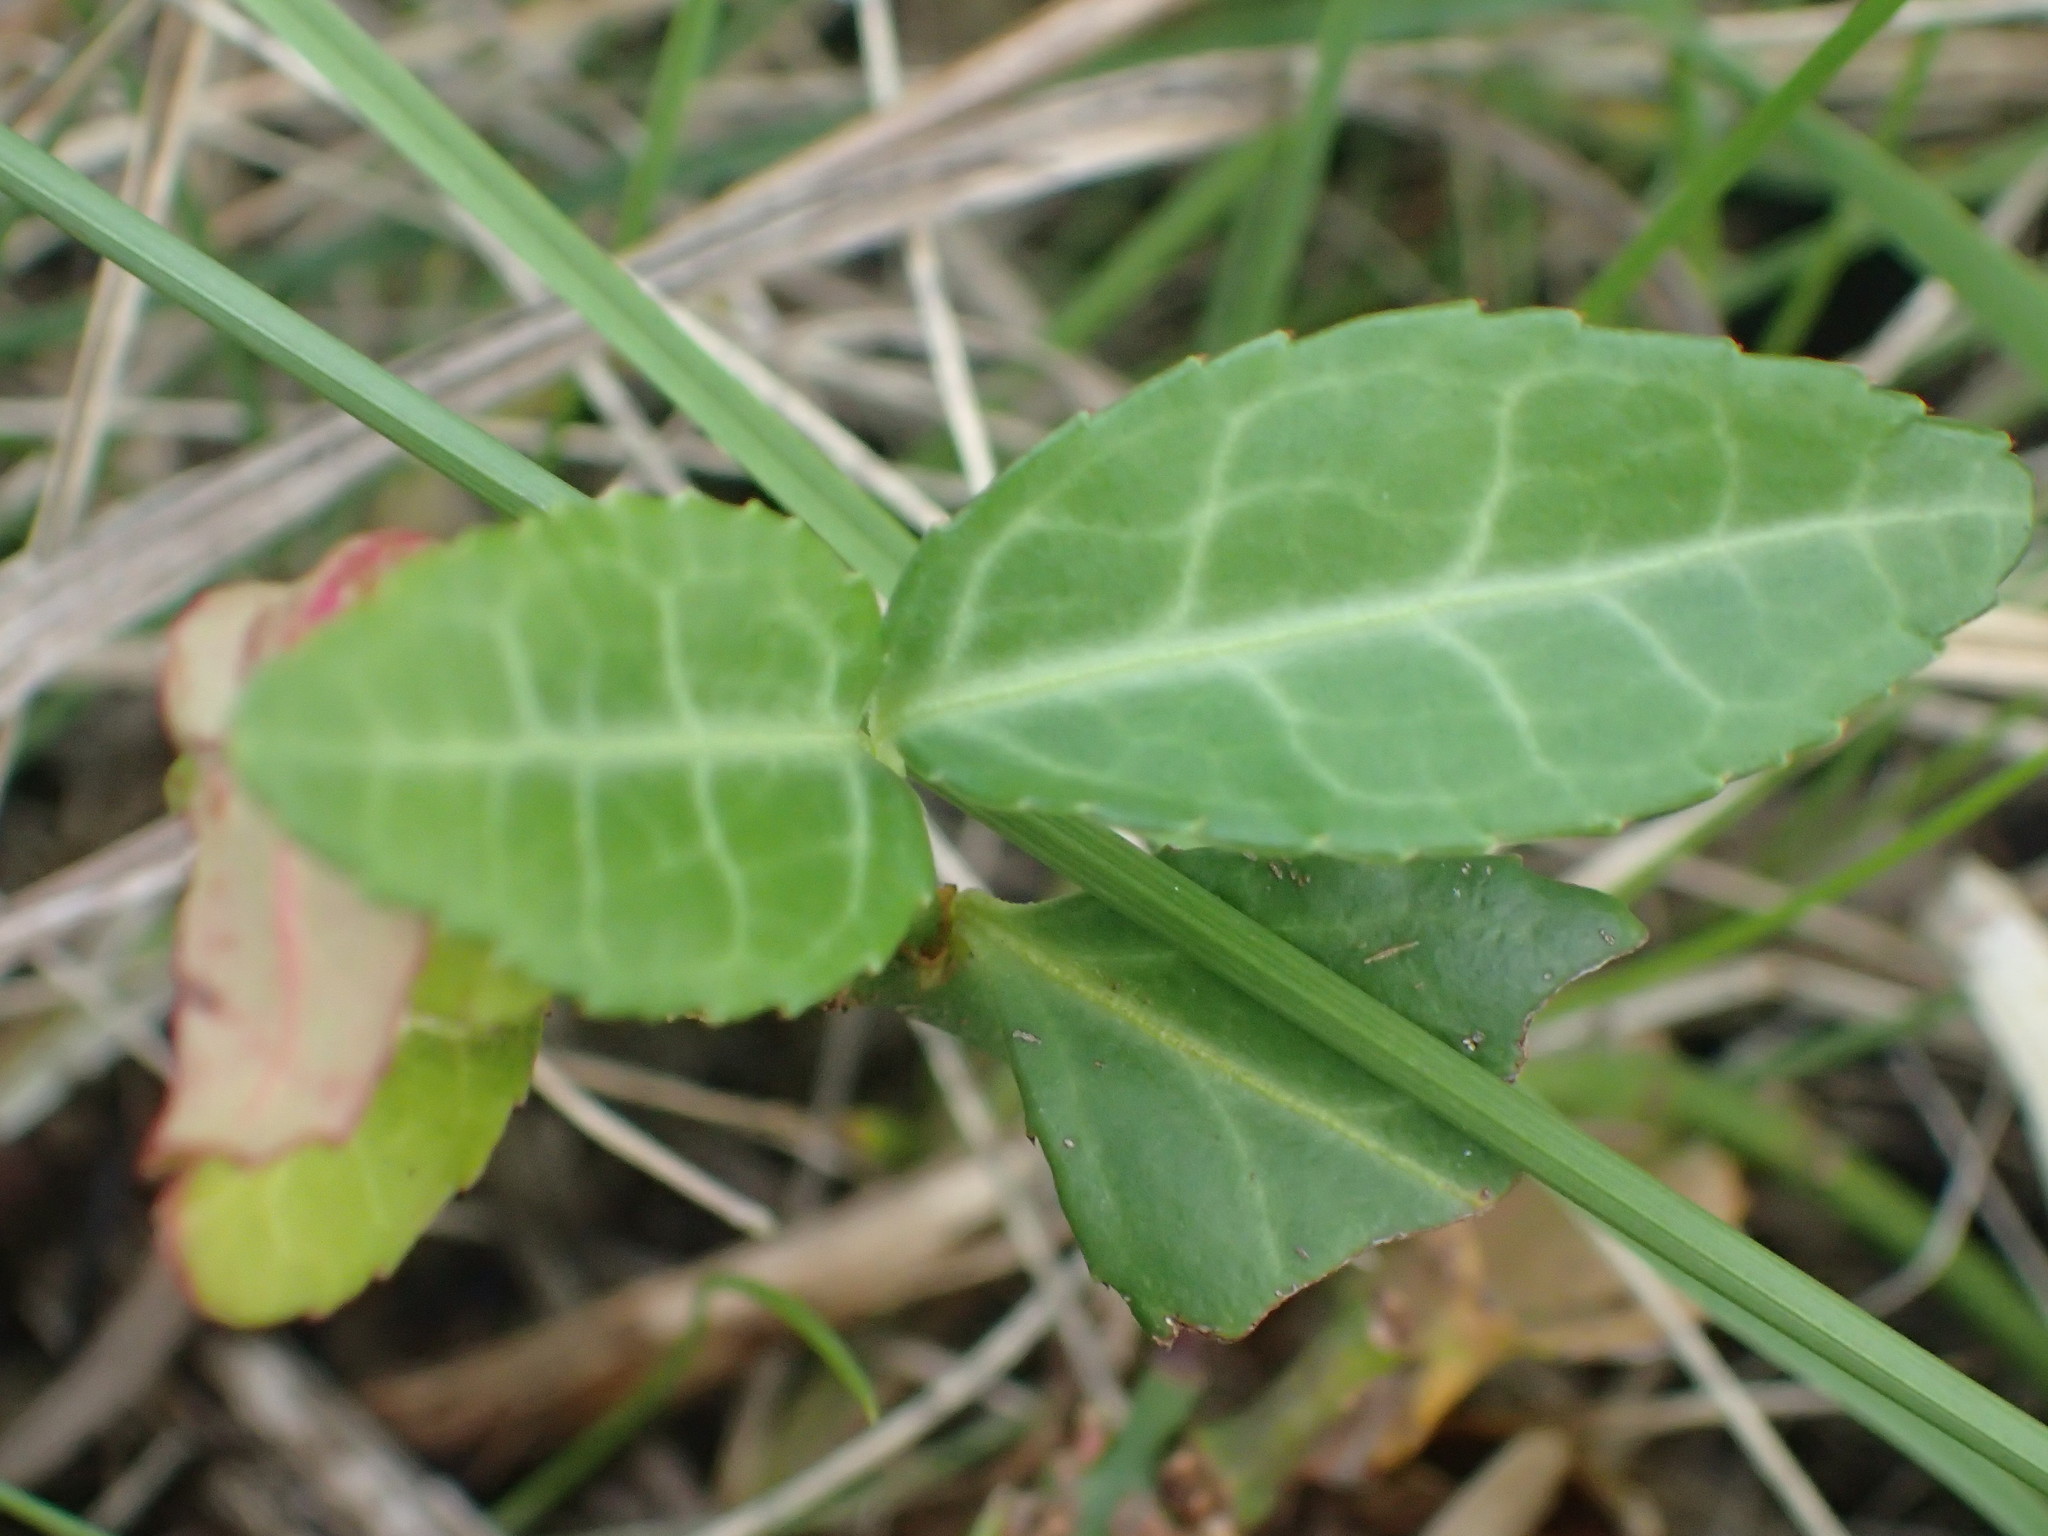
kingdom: Plantae
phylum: Tracheophyta
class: Magnoliopsida
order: Celastrales
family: Celastraceae
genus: Euonymus
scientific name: Euonymus fortunei
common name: Climbing euonymus
